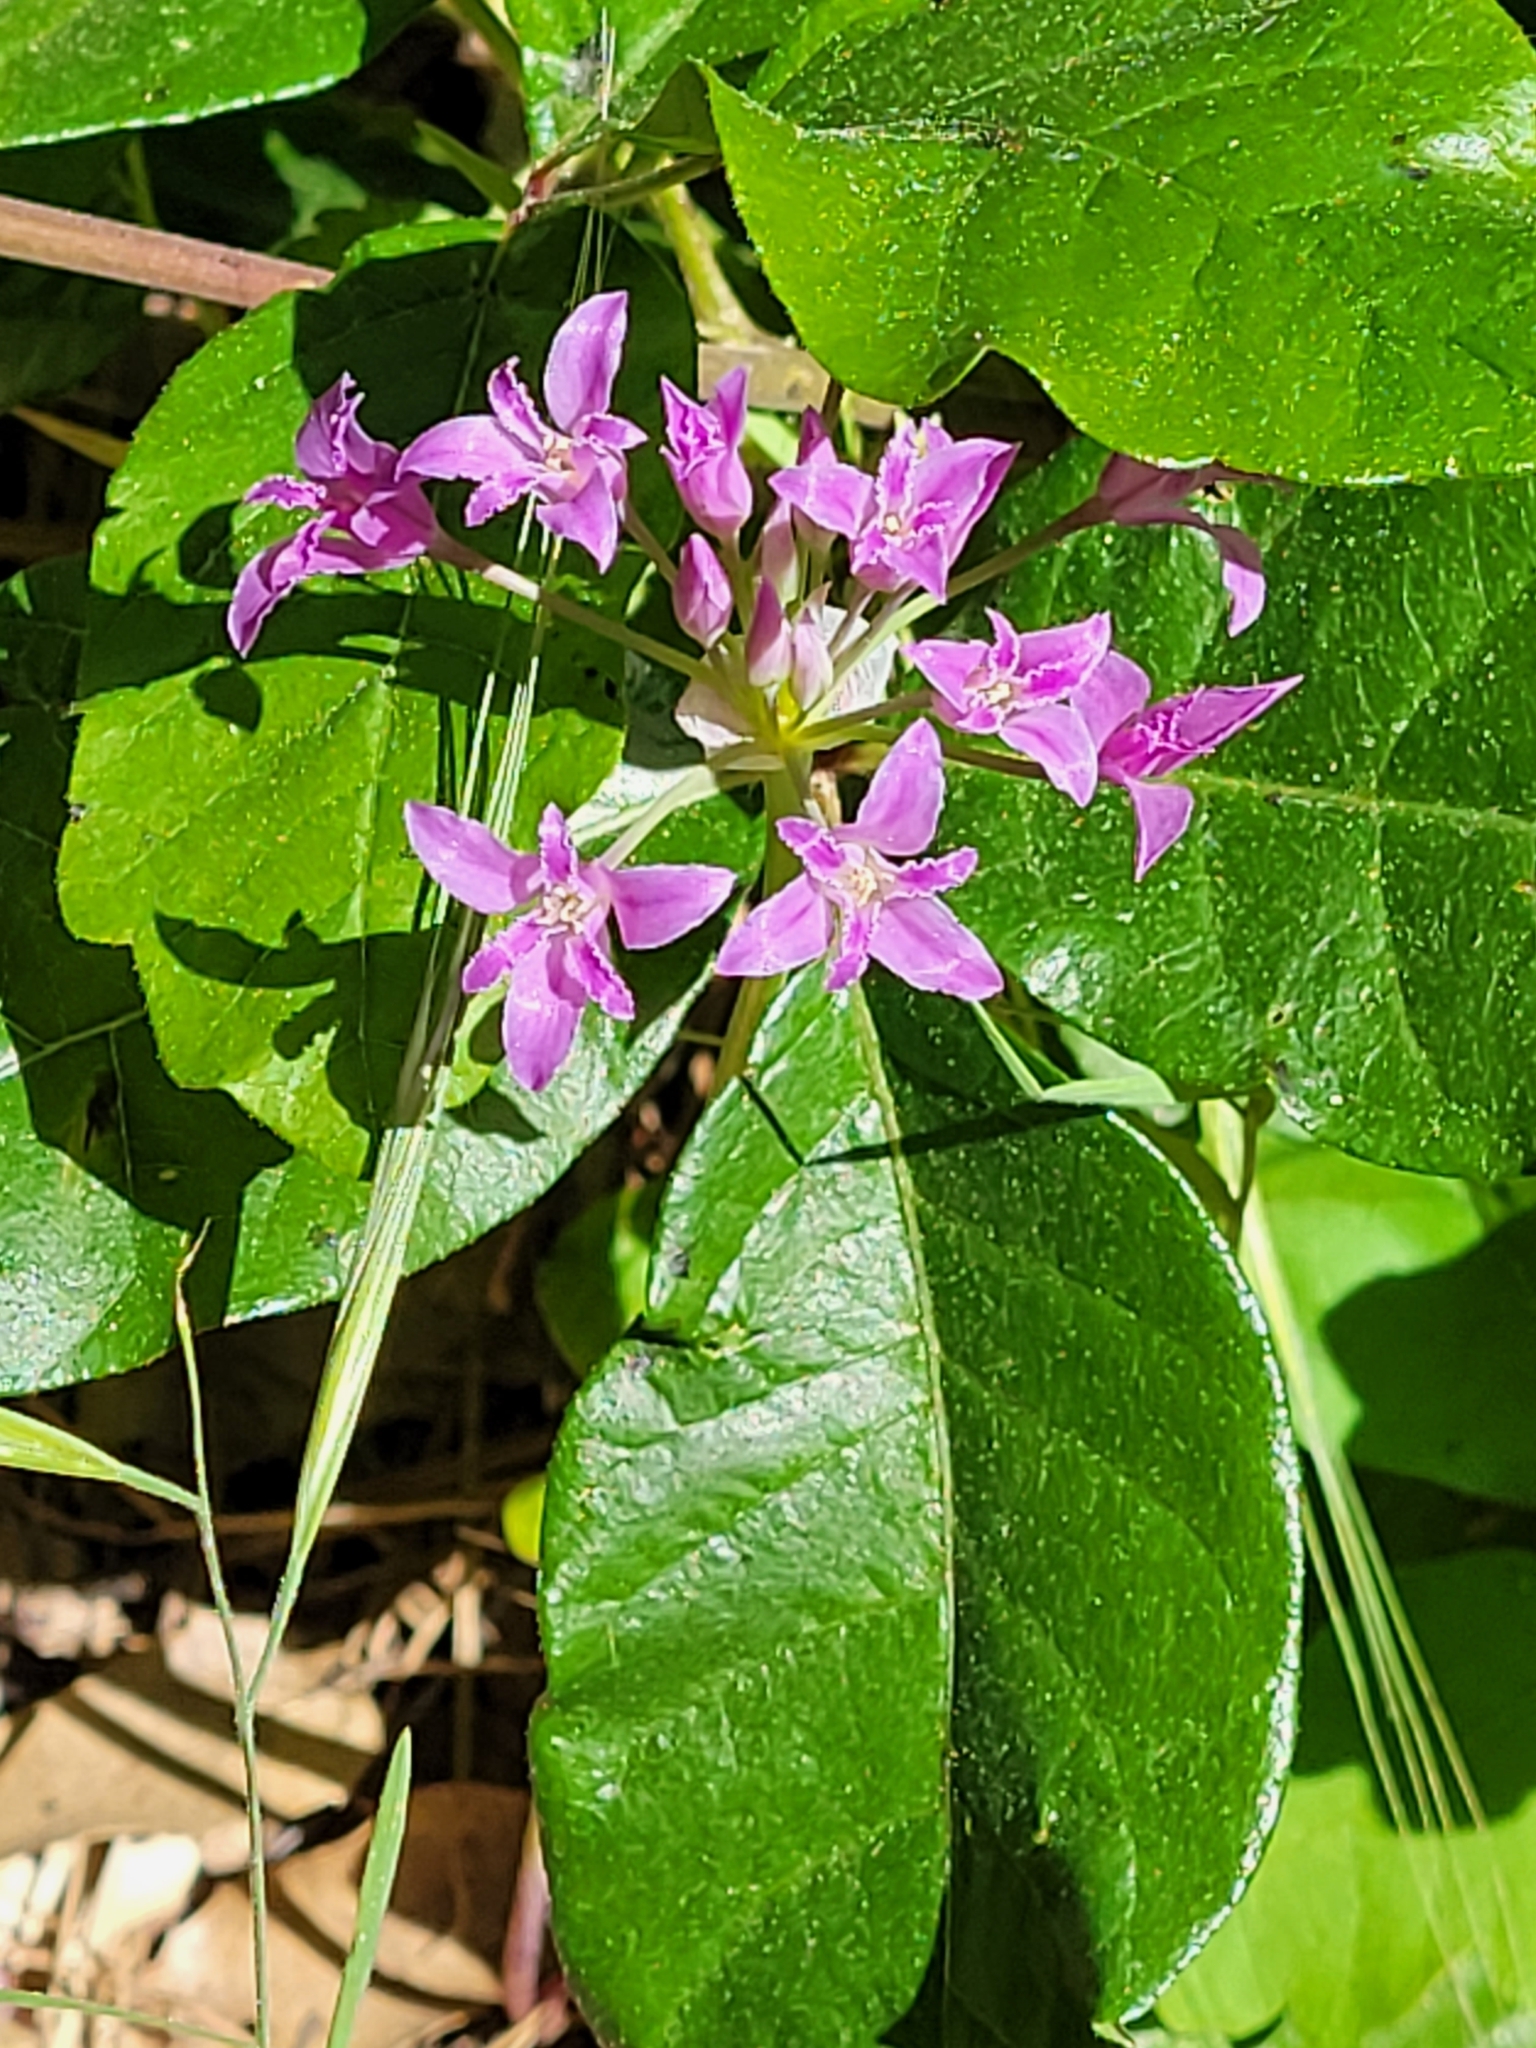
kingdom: Plantae
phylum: Tracheophyta
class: Liliopsida
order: Asparagales
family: Amaryllidaceae
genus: Allium
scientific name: Allium crispum
